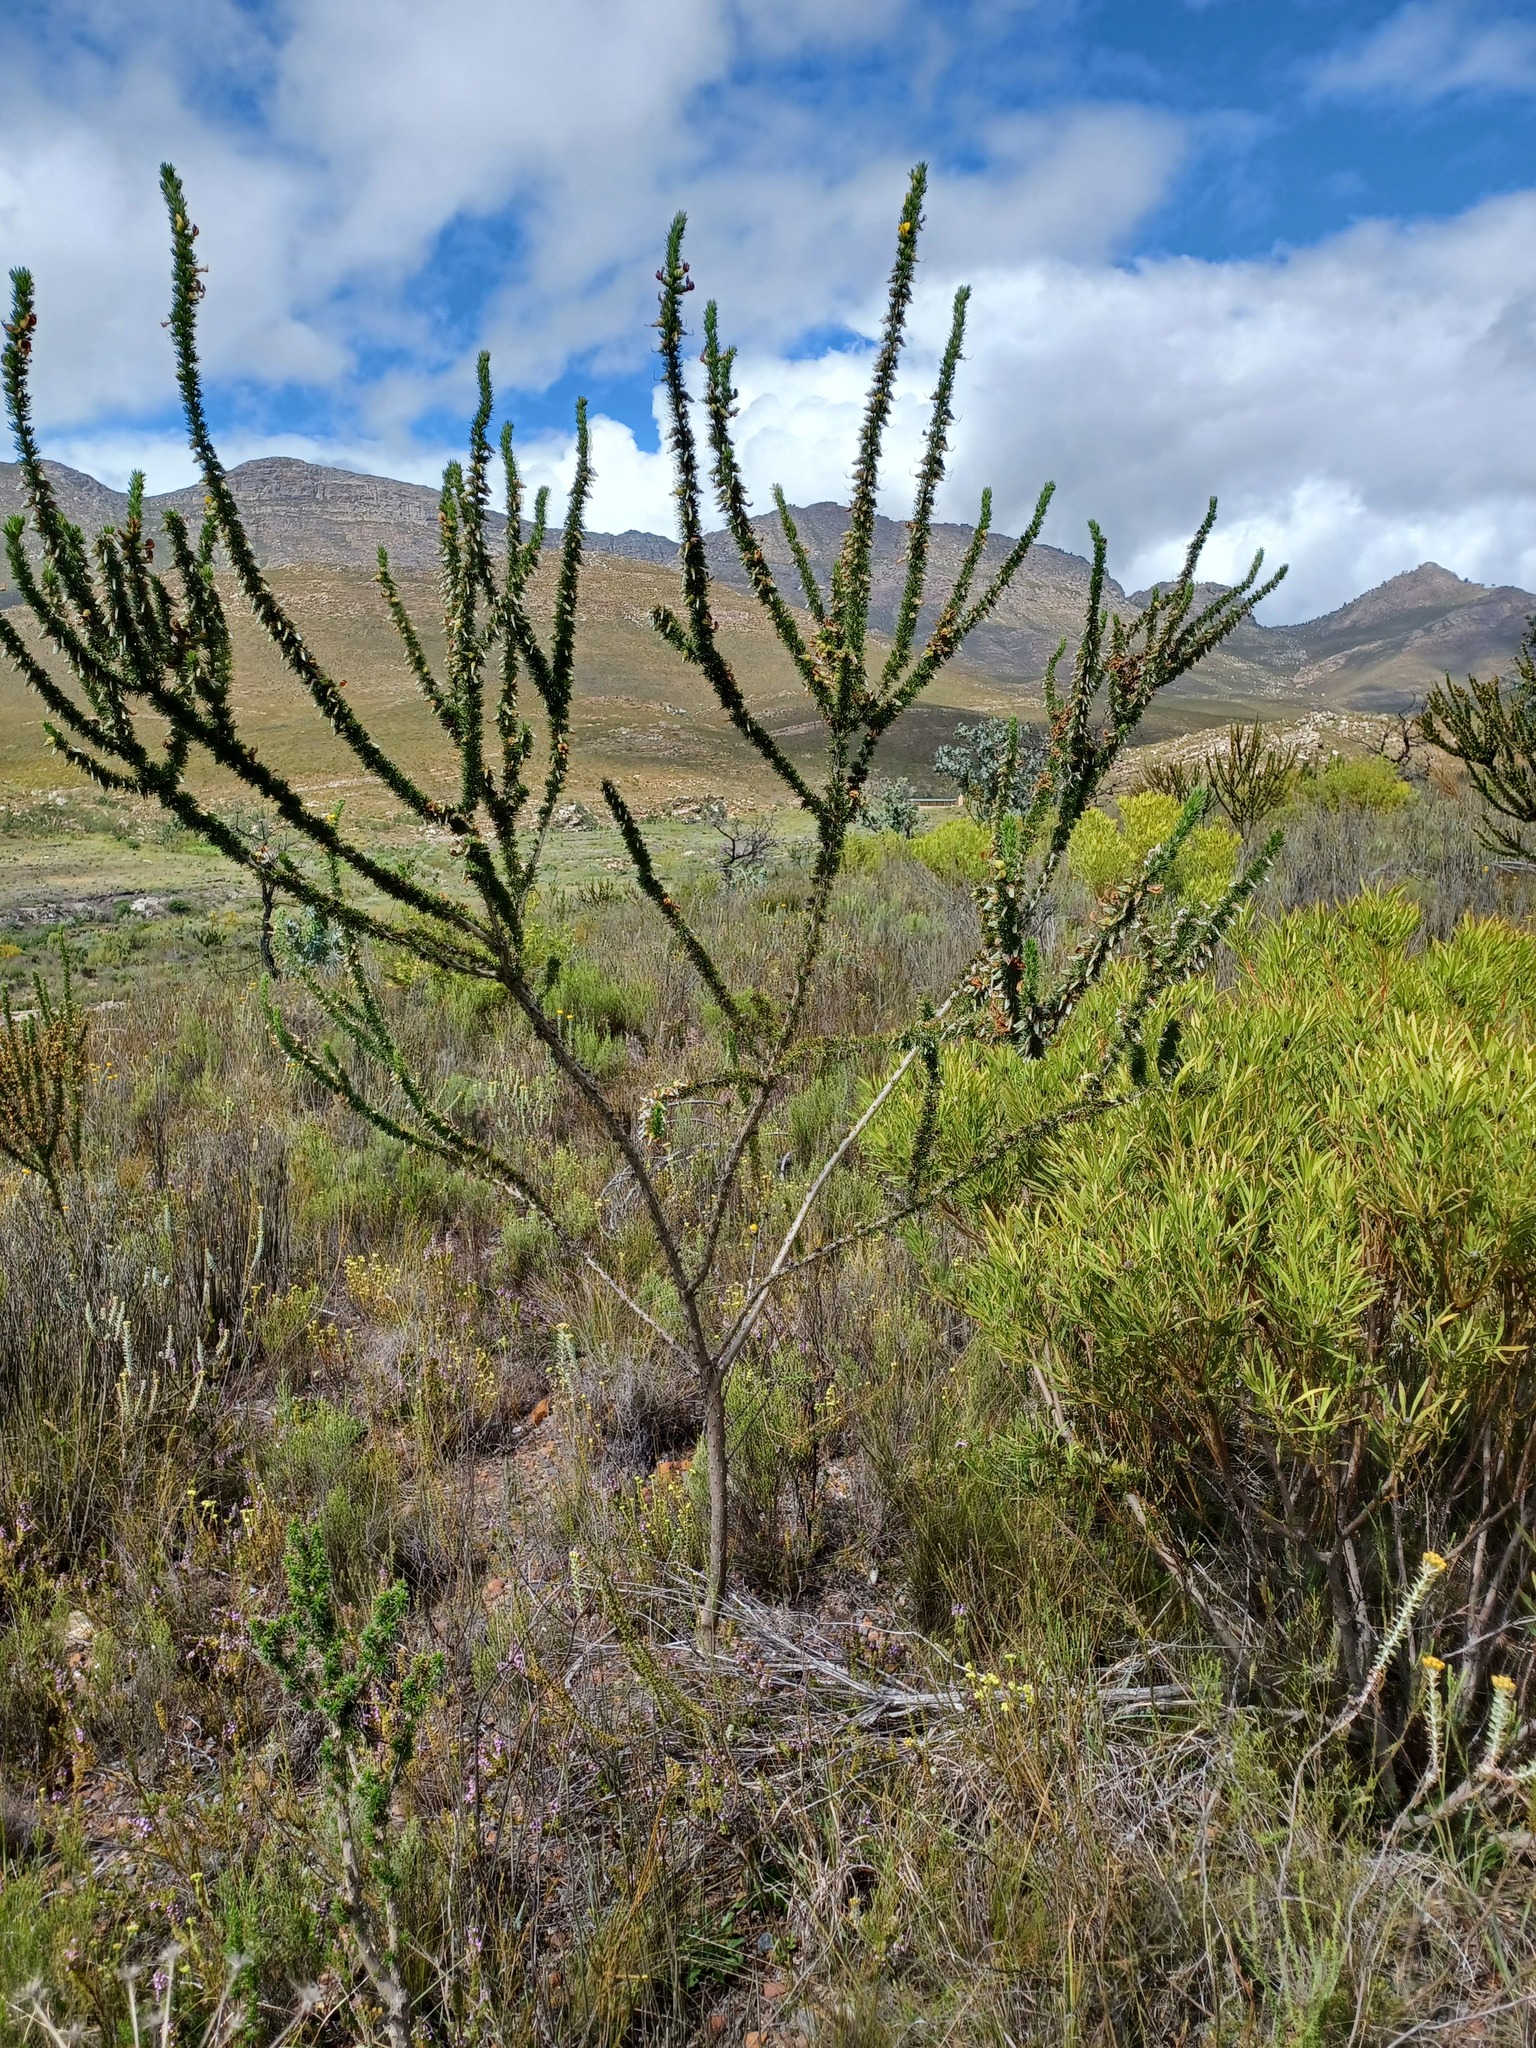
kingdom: Plantae
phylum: Tracheophyta
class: Magnoliopsida
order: Fabales
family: Fabaceae
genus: Aspalathus
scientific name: Aspalathus sceptrumaureum
